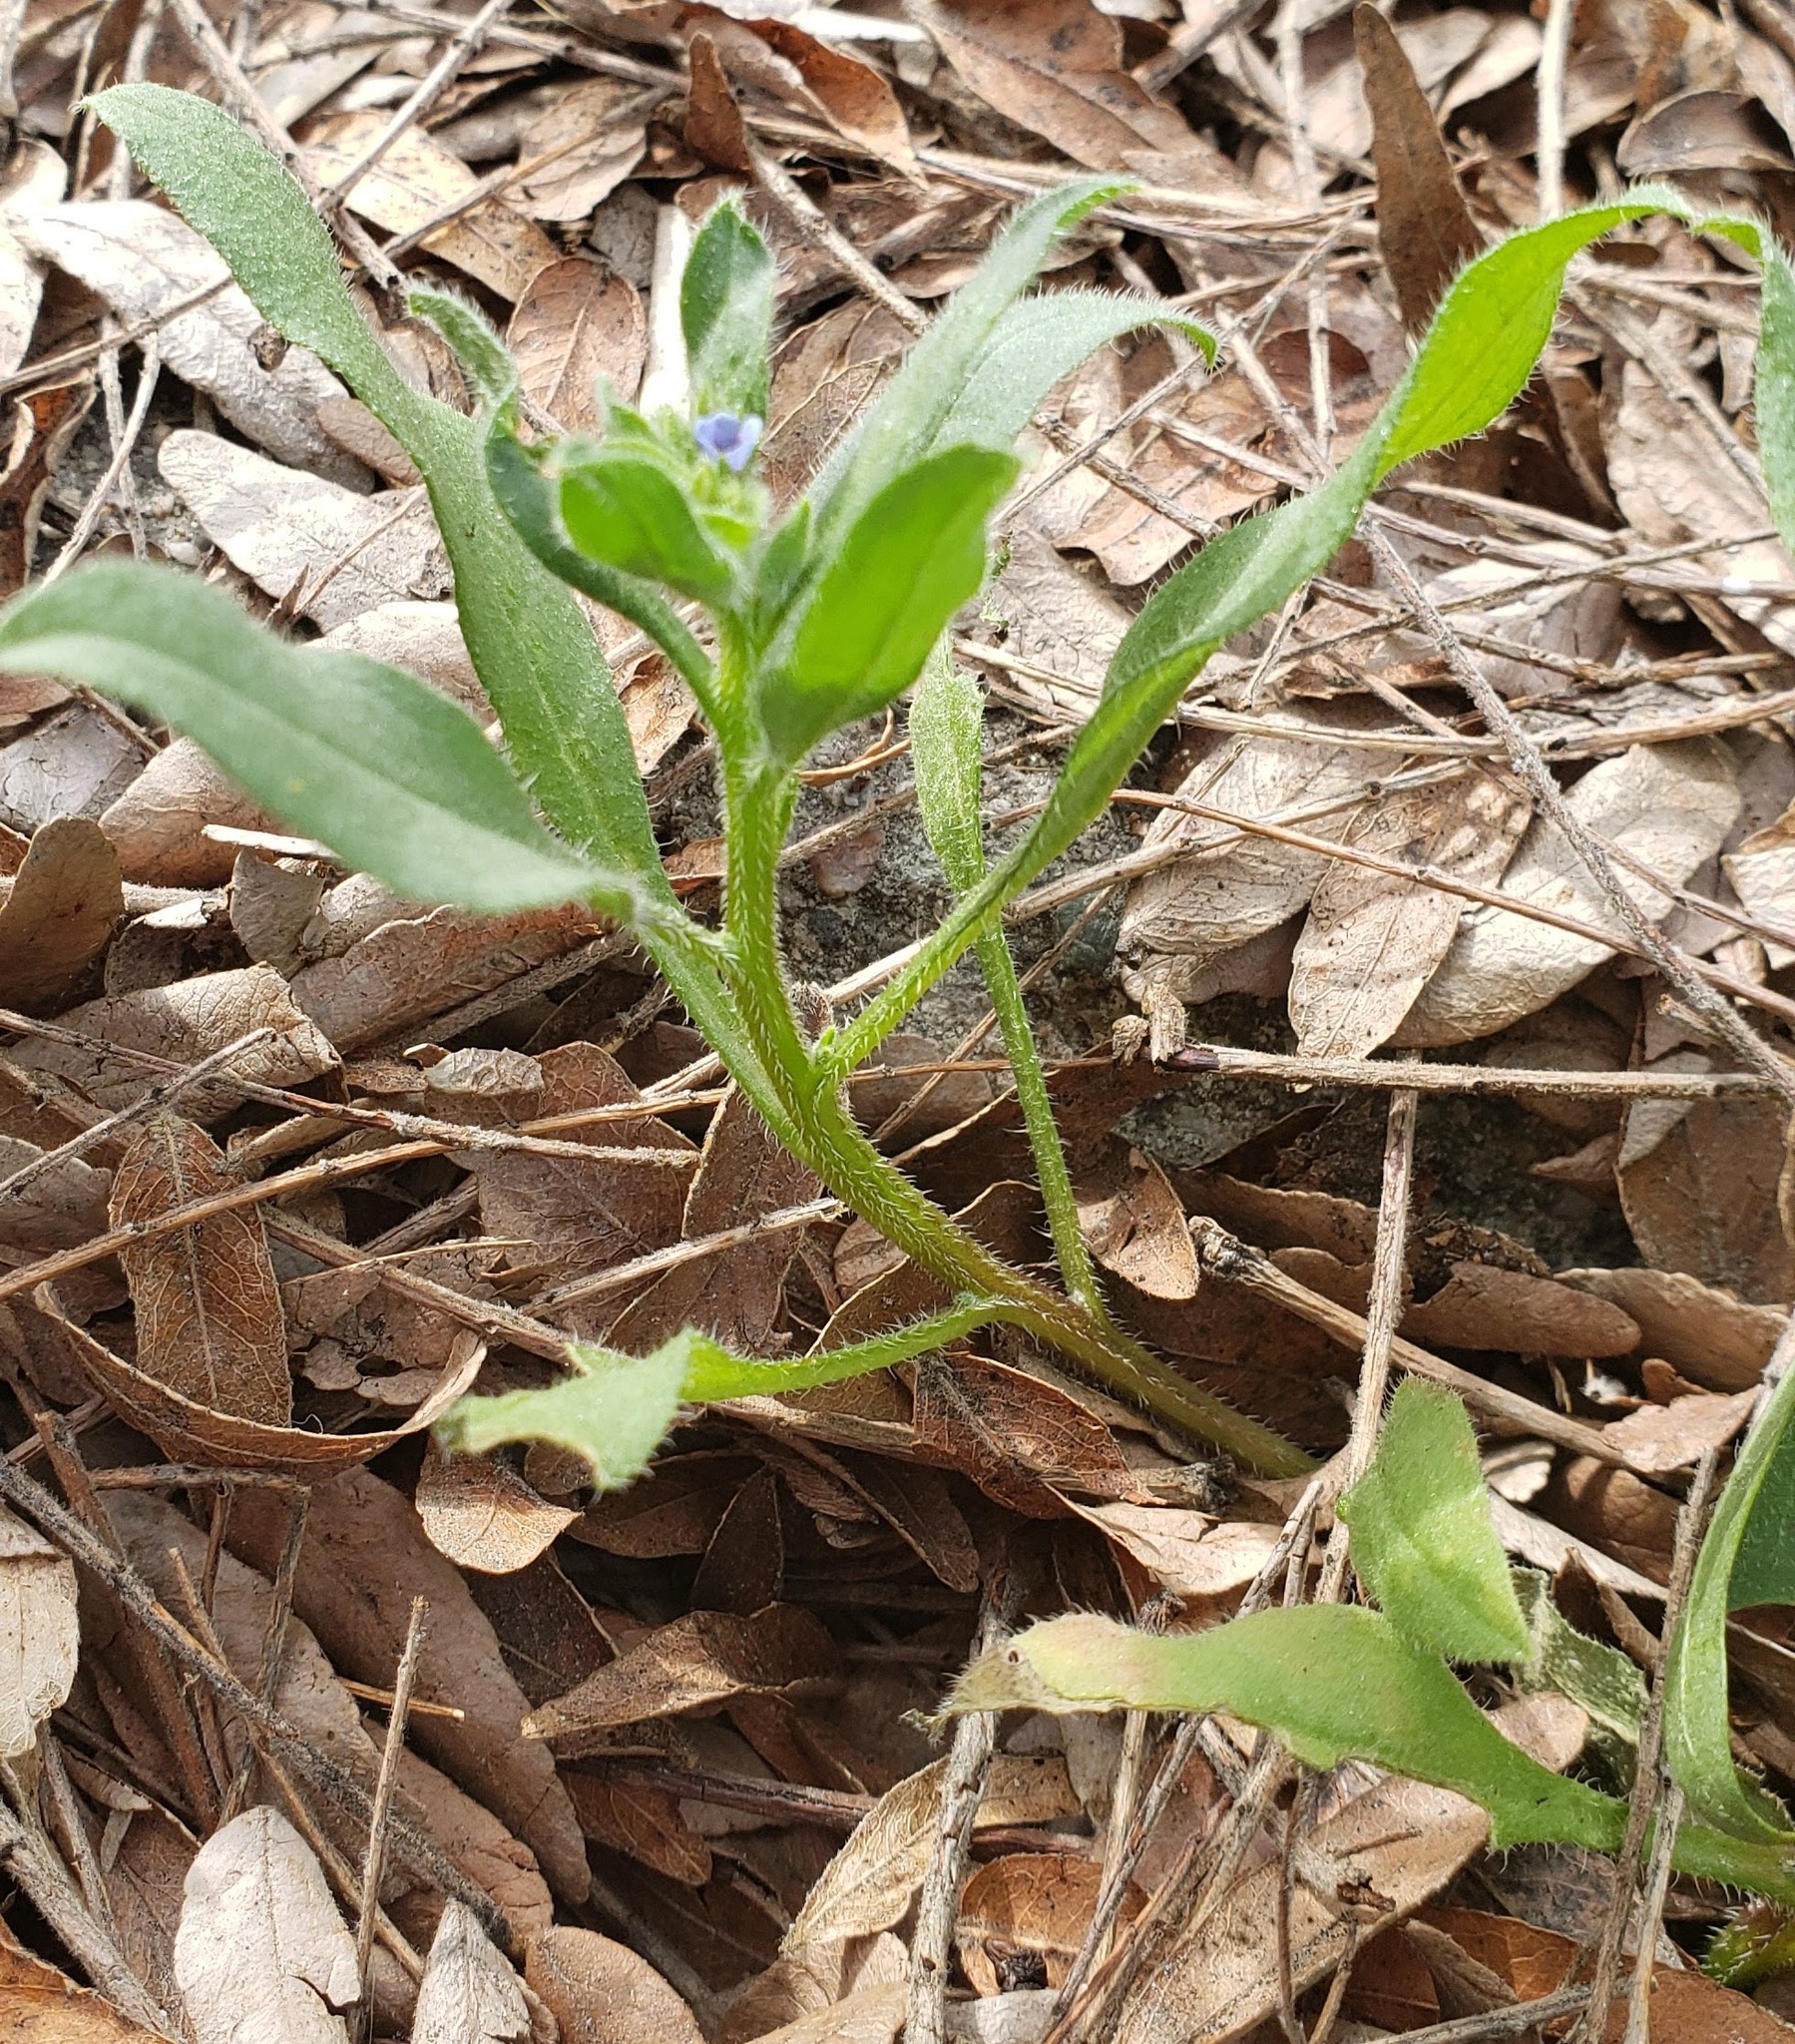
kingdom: Plantae
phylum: Tracheophyta
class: Magnoliopsida
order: Boraginales
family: Boraginaceae
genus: Asperugo
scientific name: Asperugo procumbens
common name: Madwort
